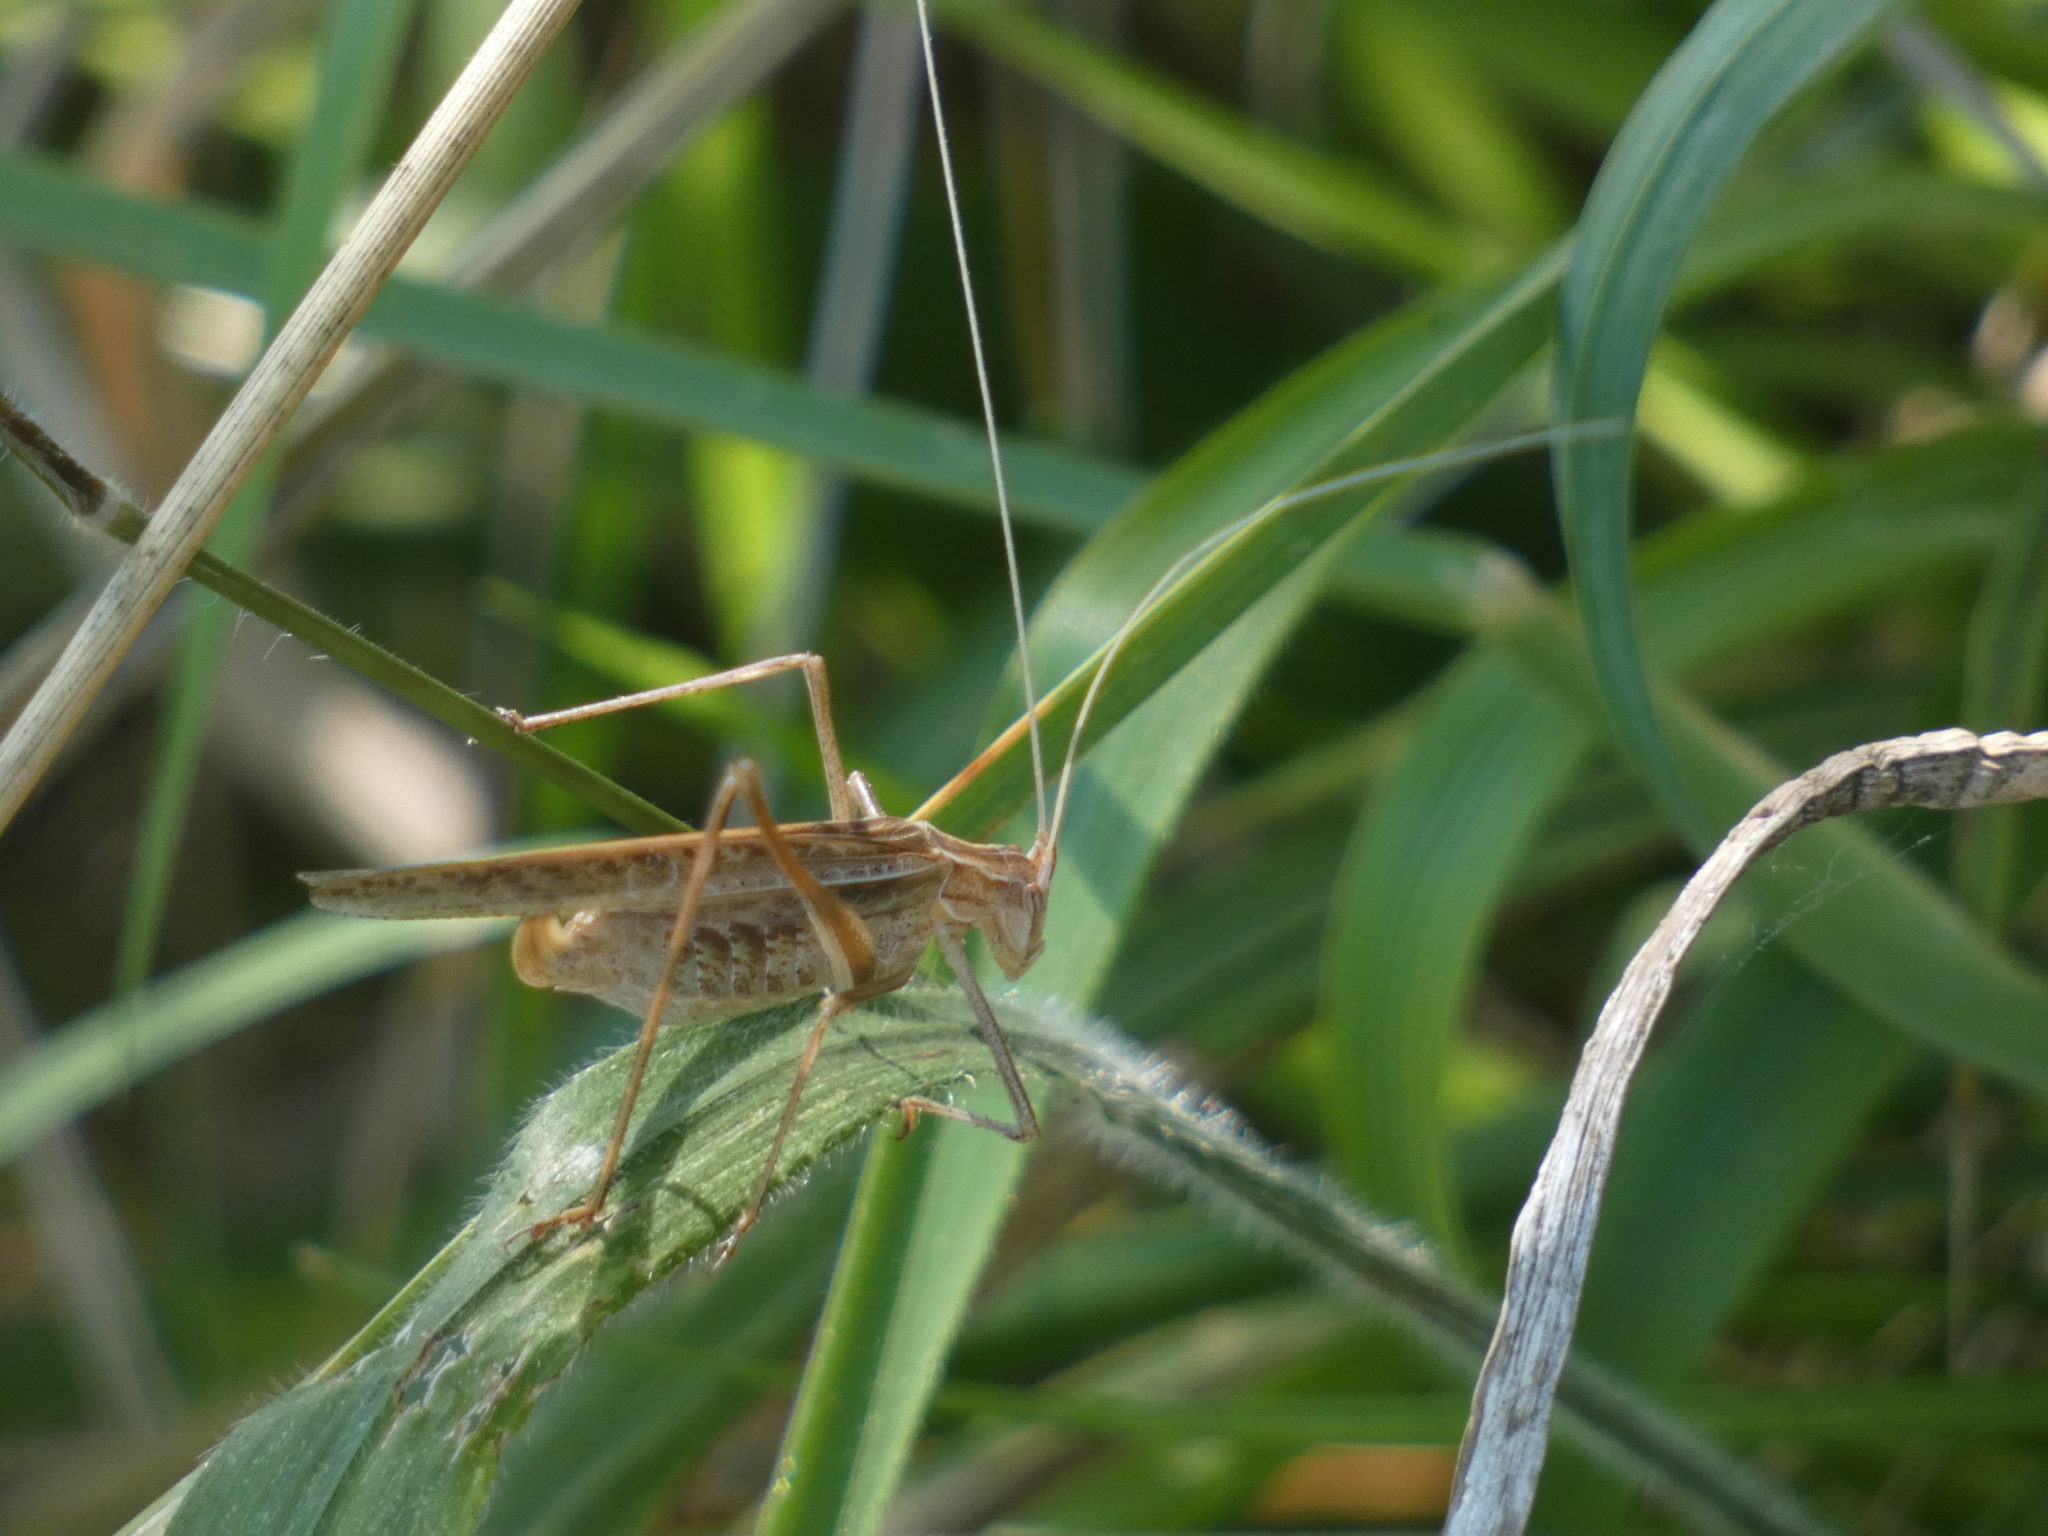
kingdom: Animalia
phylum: Arthropoda
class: Insecta
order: Orthoptera
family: Tettigoniidae
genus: Tylopsis
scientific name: Tylopsis lilifolia
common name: Lily bush-cricket
